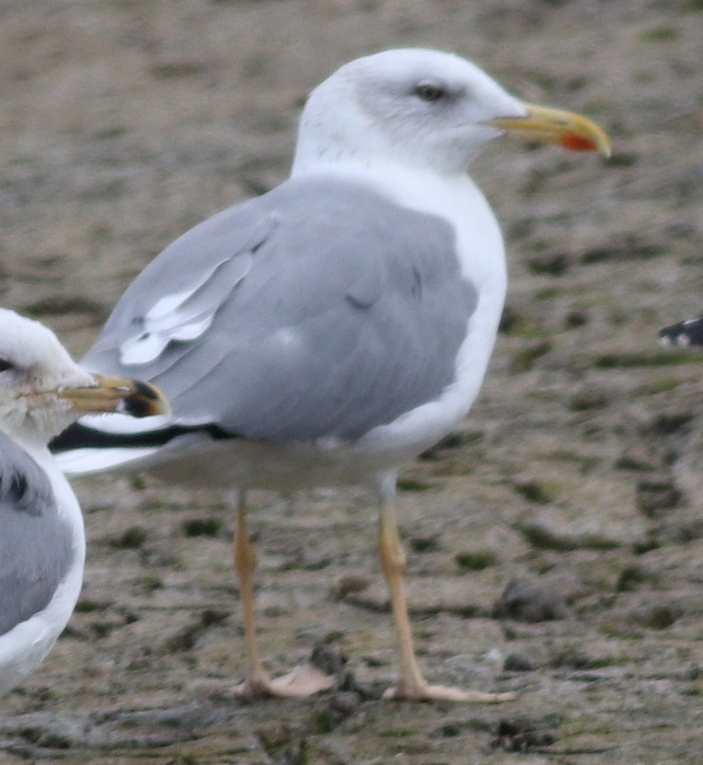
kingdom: Animalia
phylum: Chordata
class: Aves
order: Charadriiformes
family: Laridae
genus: Larus
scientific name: Larus cachinnans
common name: Caspian gull
